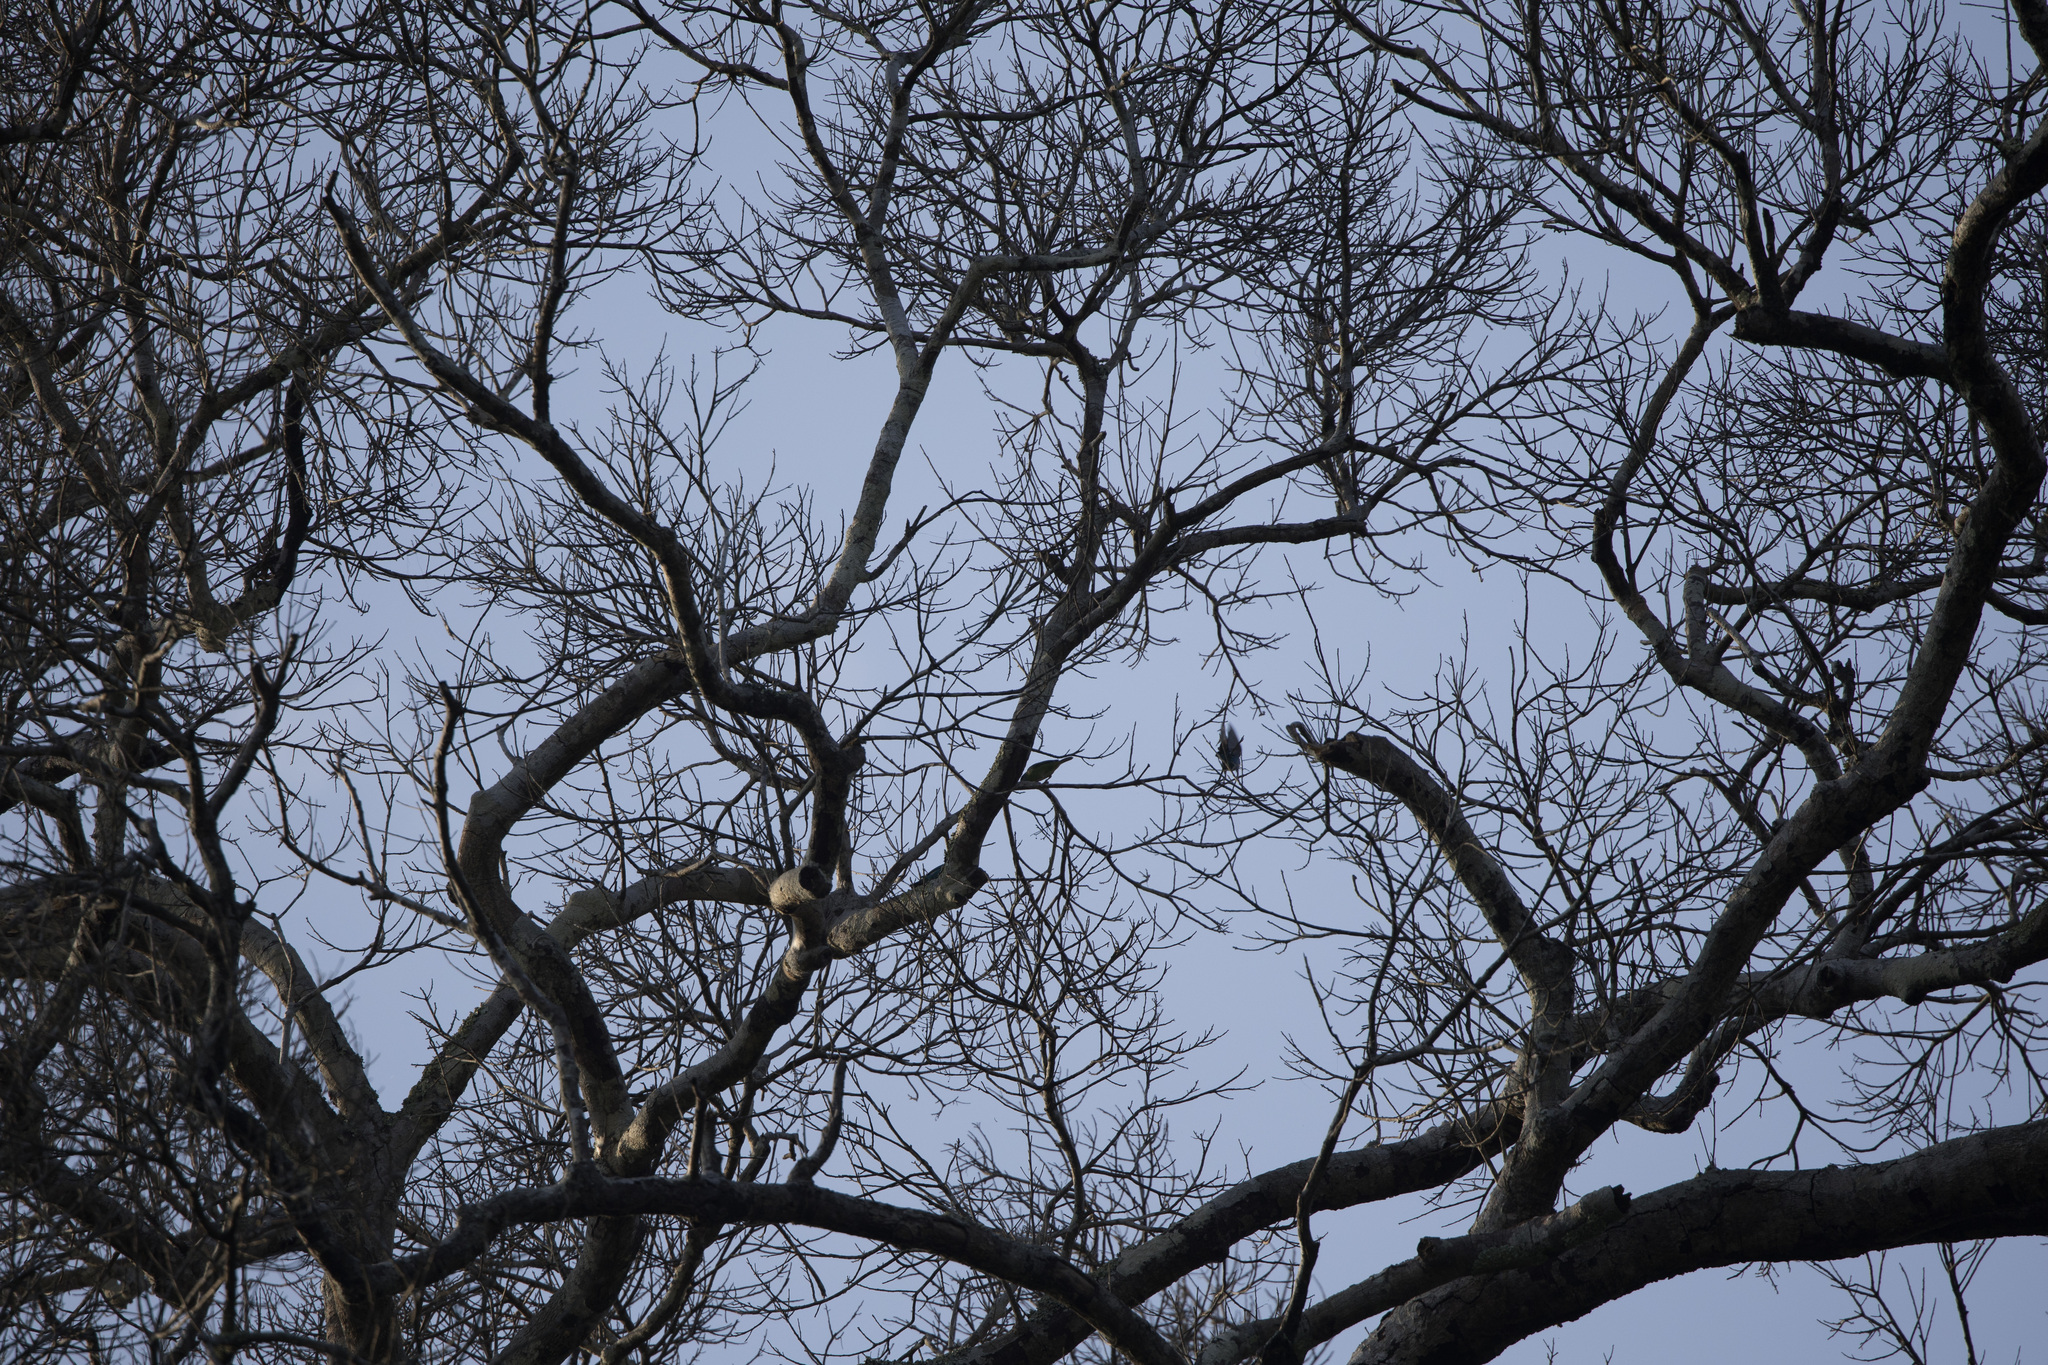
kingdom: Animalia
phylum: Chordata
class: Aves
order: Passeriformes
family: Thraupidae
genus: Dacnis
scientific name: Dacnis cayana
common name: Blue dacnis
